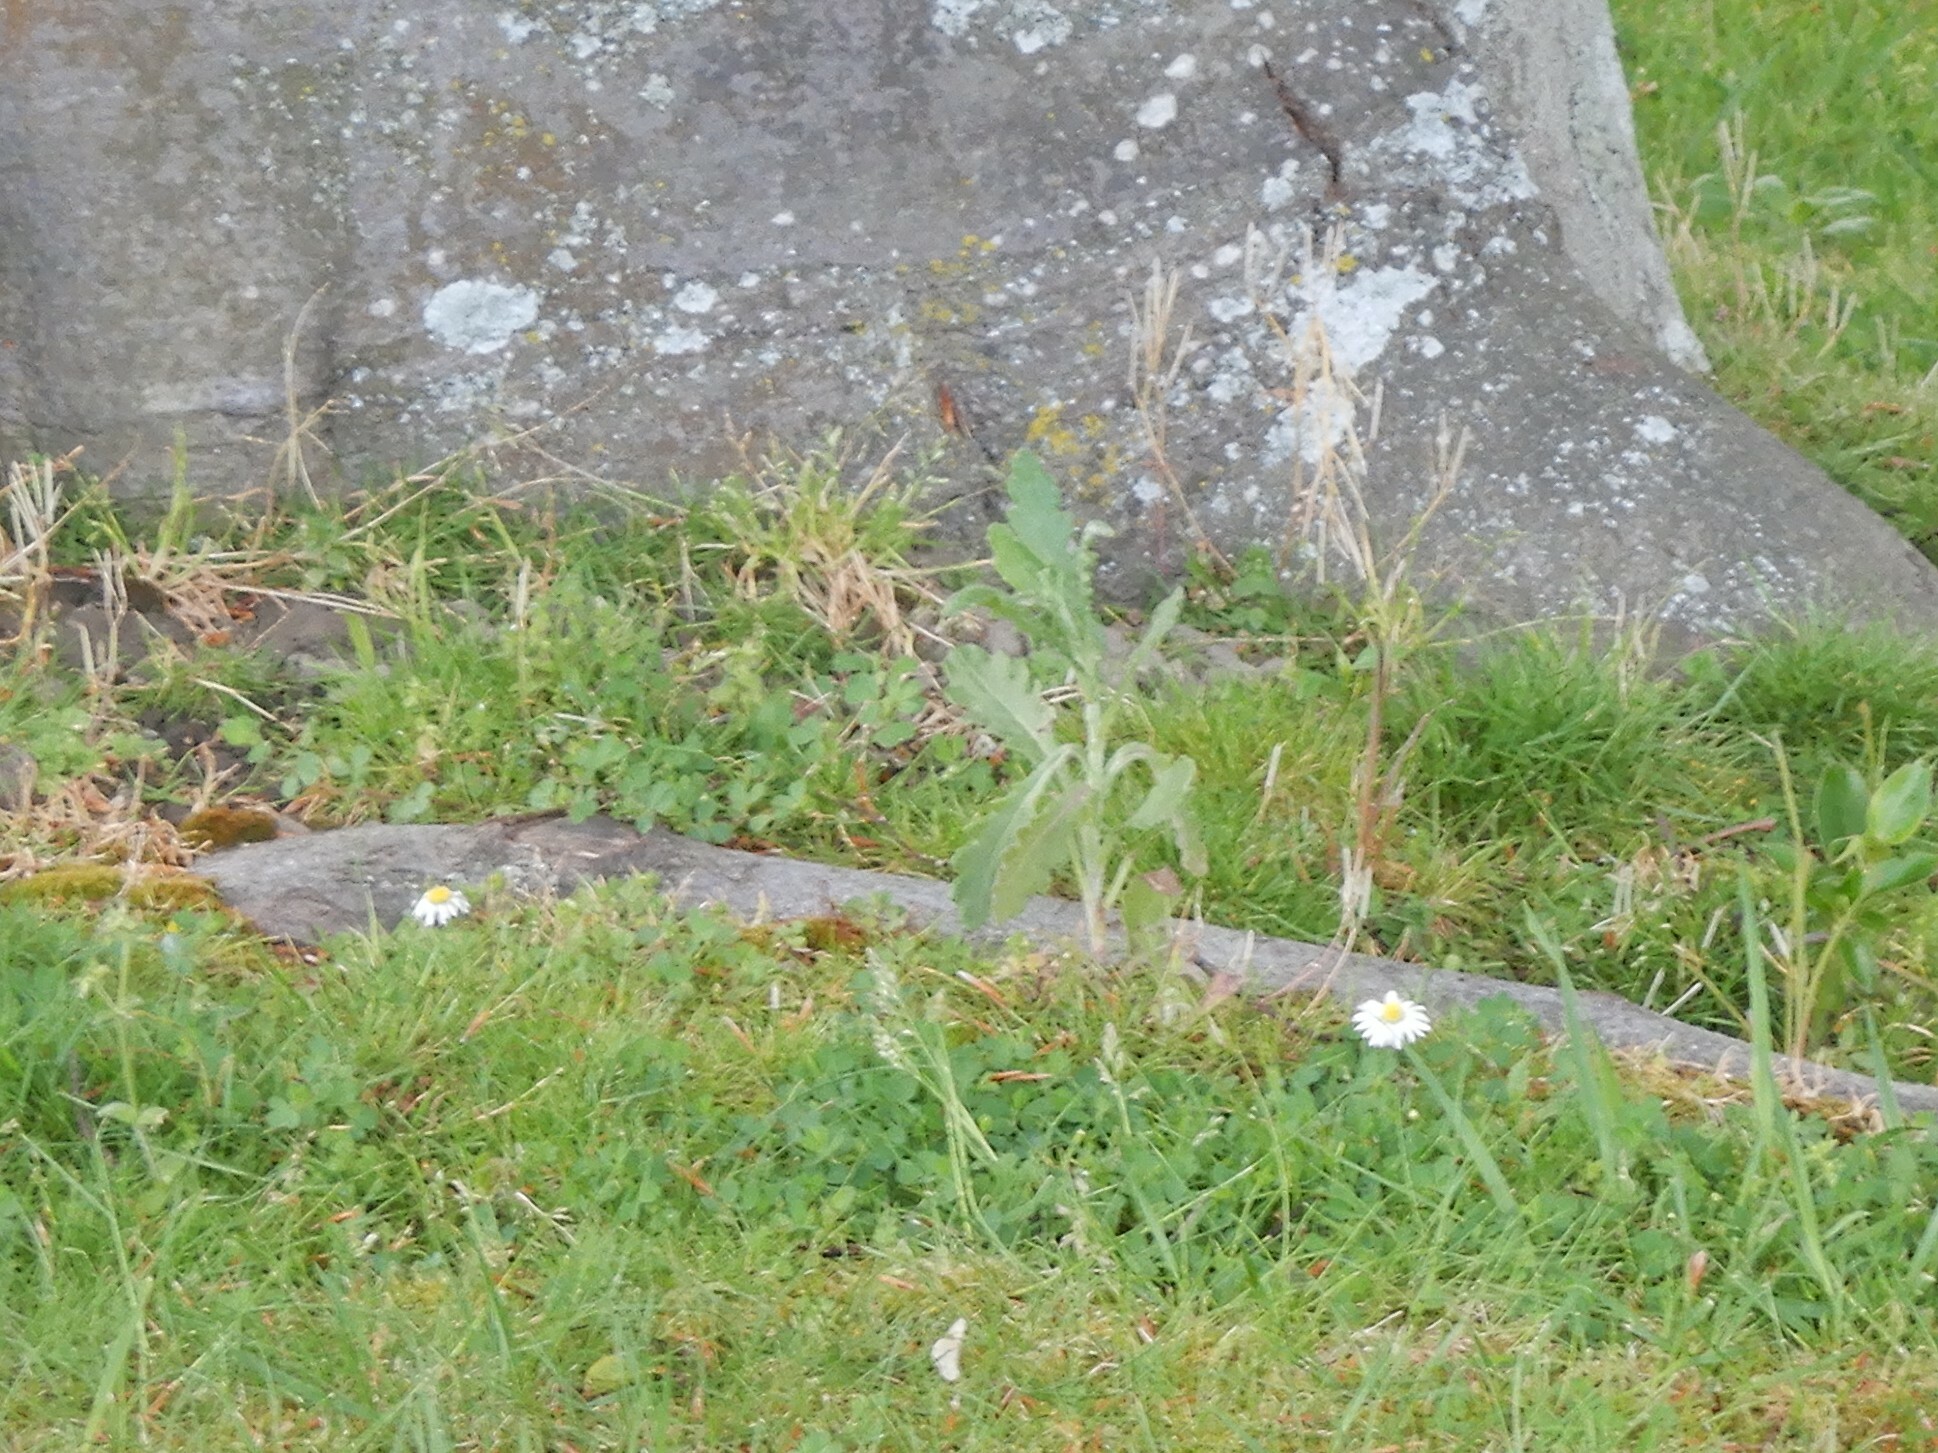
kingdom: Plantae
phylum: Tracheophyta
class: Magnoliopsida
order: Asterales
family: Asteraceae
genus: Senecio
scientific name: Senecio glomeratus
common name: Cutleaf burnweed
